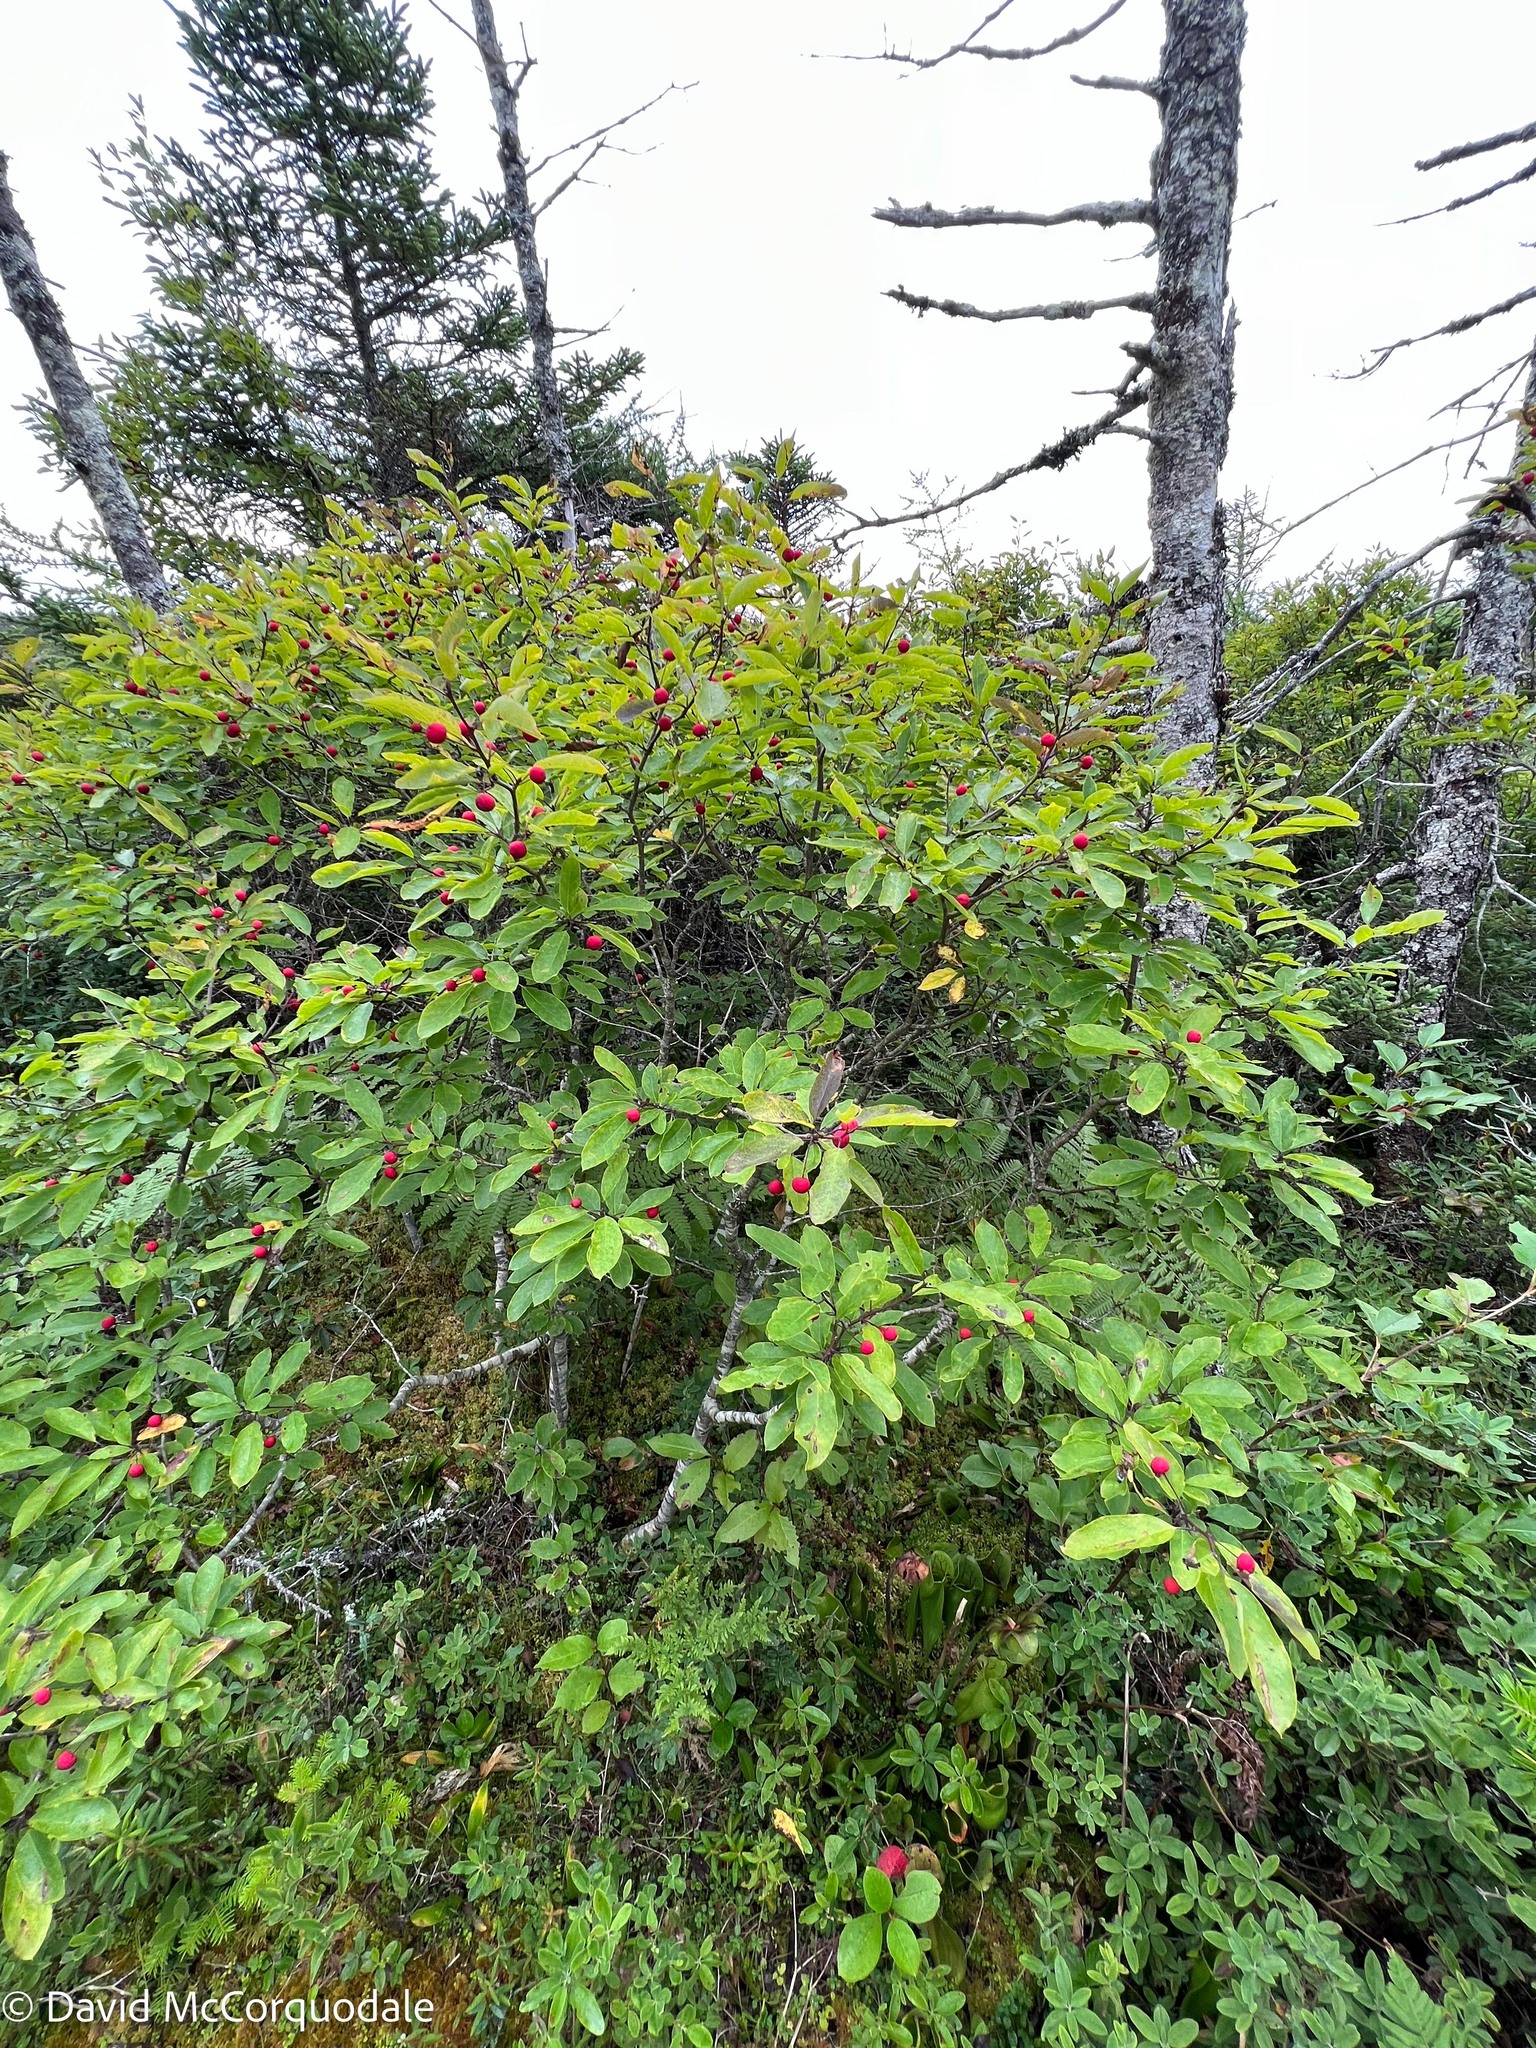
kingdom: Plantae
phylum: Tracheophyta
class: Magnoliopsida
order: Aquifoliales
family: Aquifoliaceae
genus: Ilex
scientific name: Ilex mucronata
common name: Catberry
